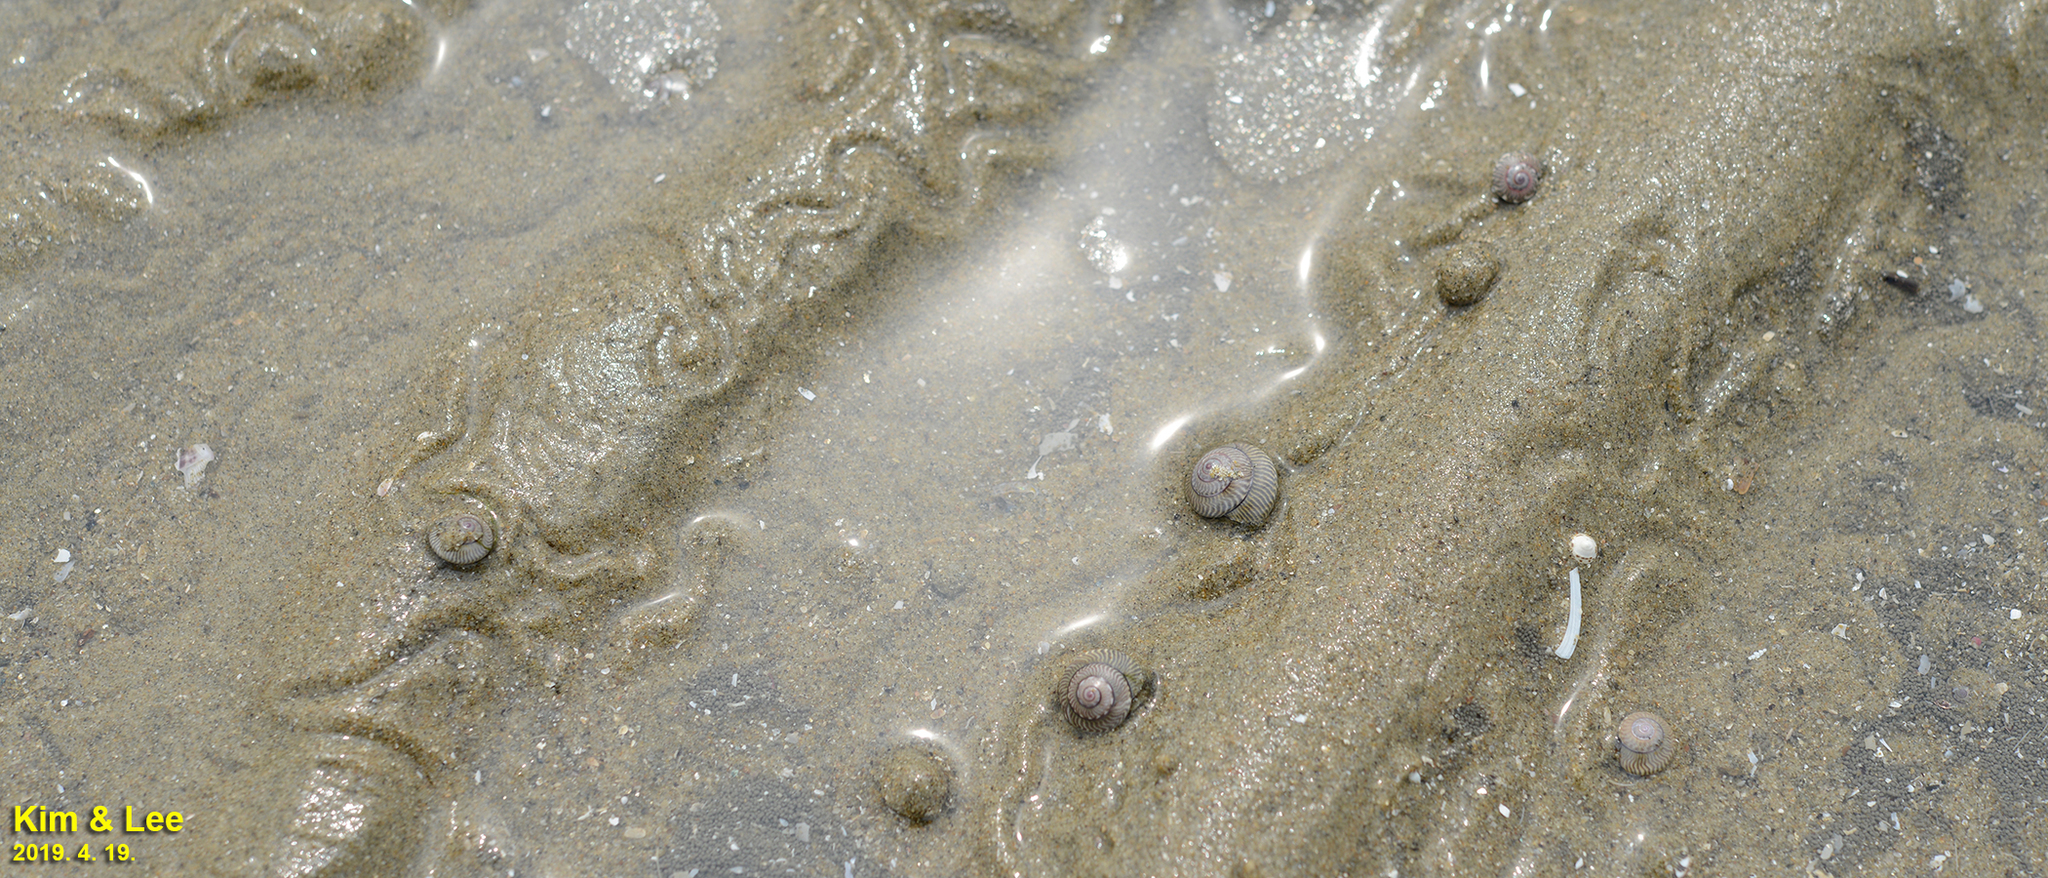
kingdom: Animalia
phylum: Mollusca
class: Gastropoda
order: Trochida
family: Trochidae
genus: Umbonium
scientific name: Umbonium thomasi
